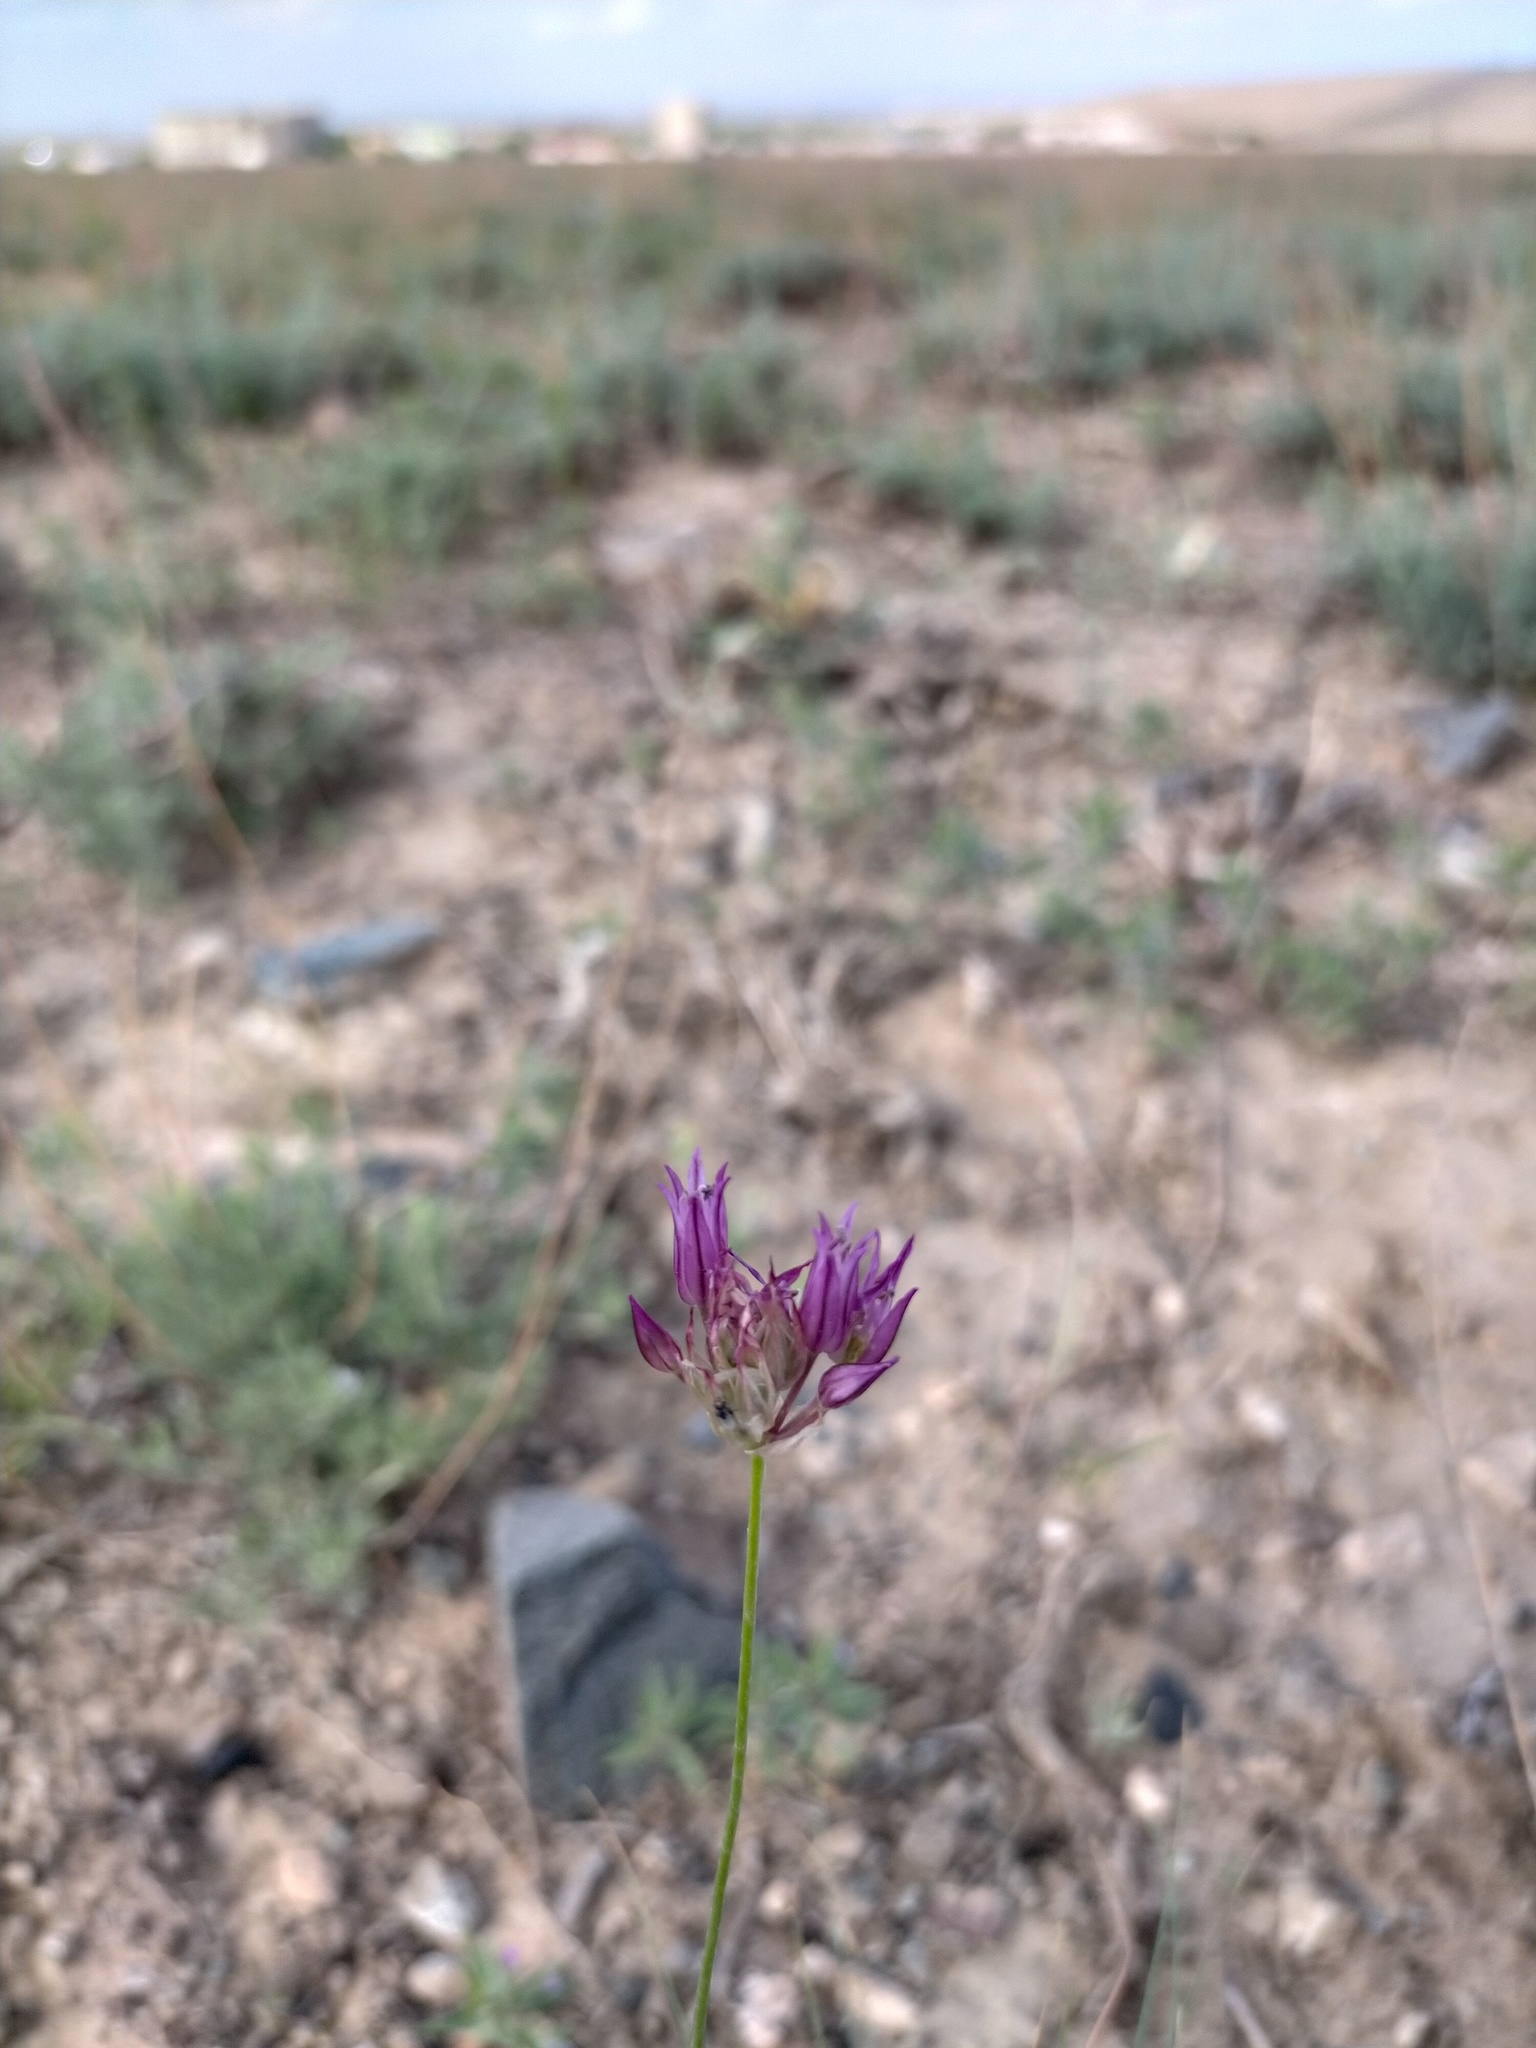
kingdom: Plantae
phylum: Tracheophyta
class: Liliopsida
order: Asparagales
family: Amaryllidaceae
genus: Allium
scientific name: Allium barsczewskii
